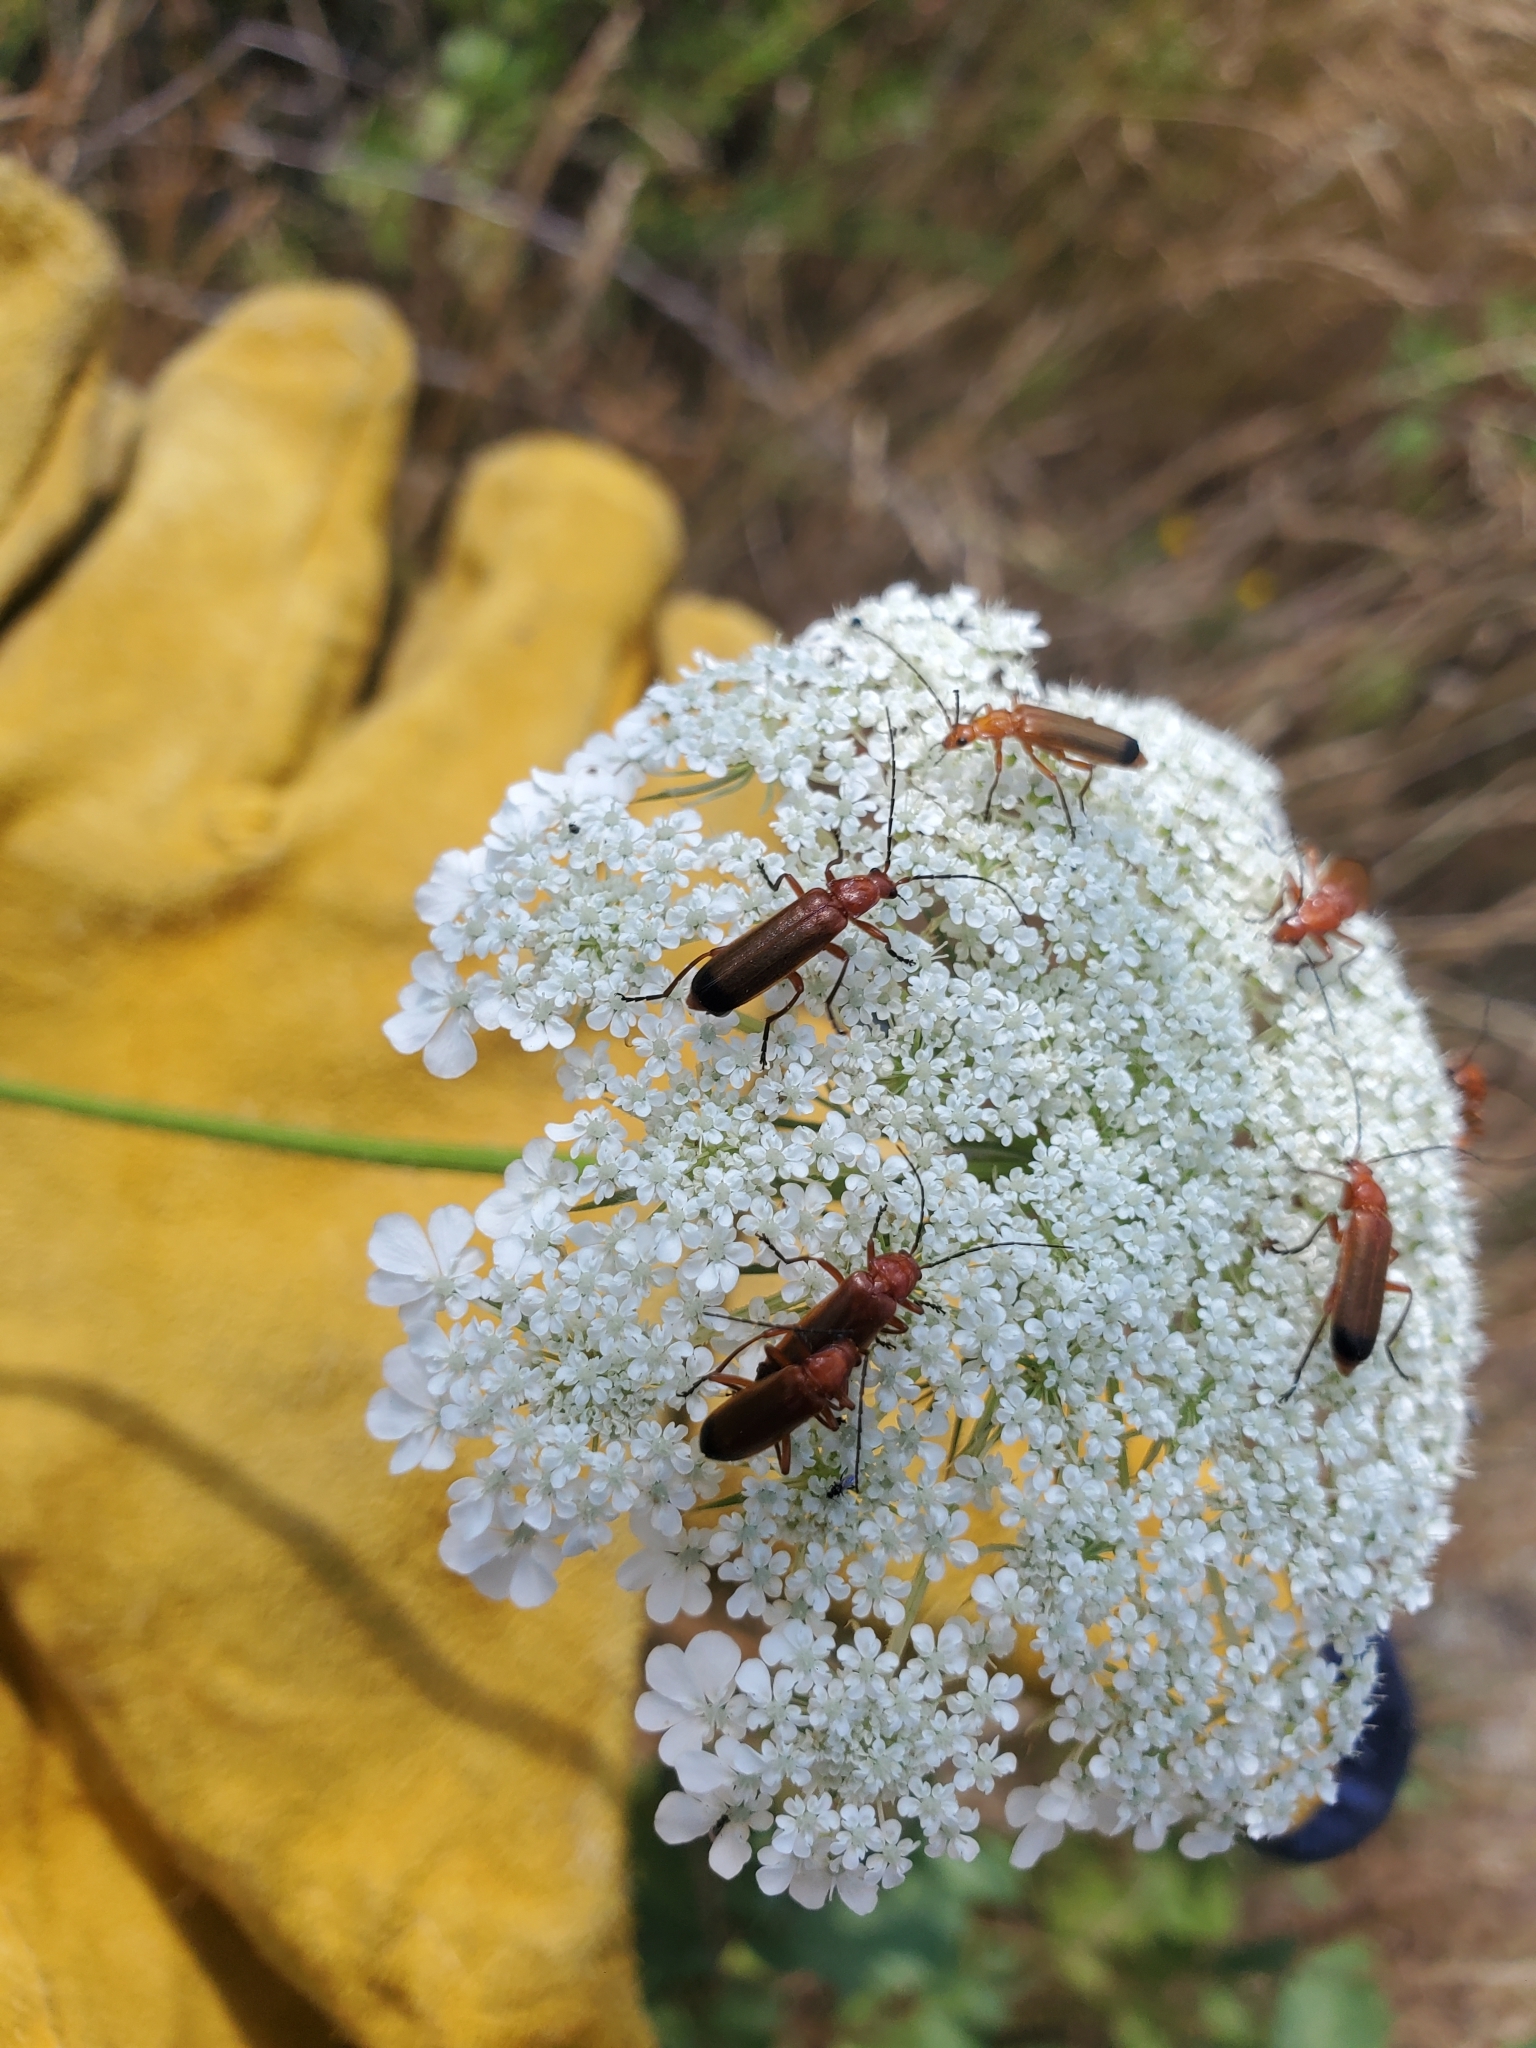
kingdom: Animalia
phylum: Arthropoda
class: Insecta
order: Coleoptera
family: Cantharidae
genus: Rhagonycha
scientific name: Rhagonycha fulva
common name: Common red soldier beetle
